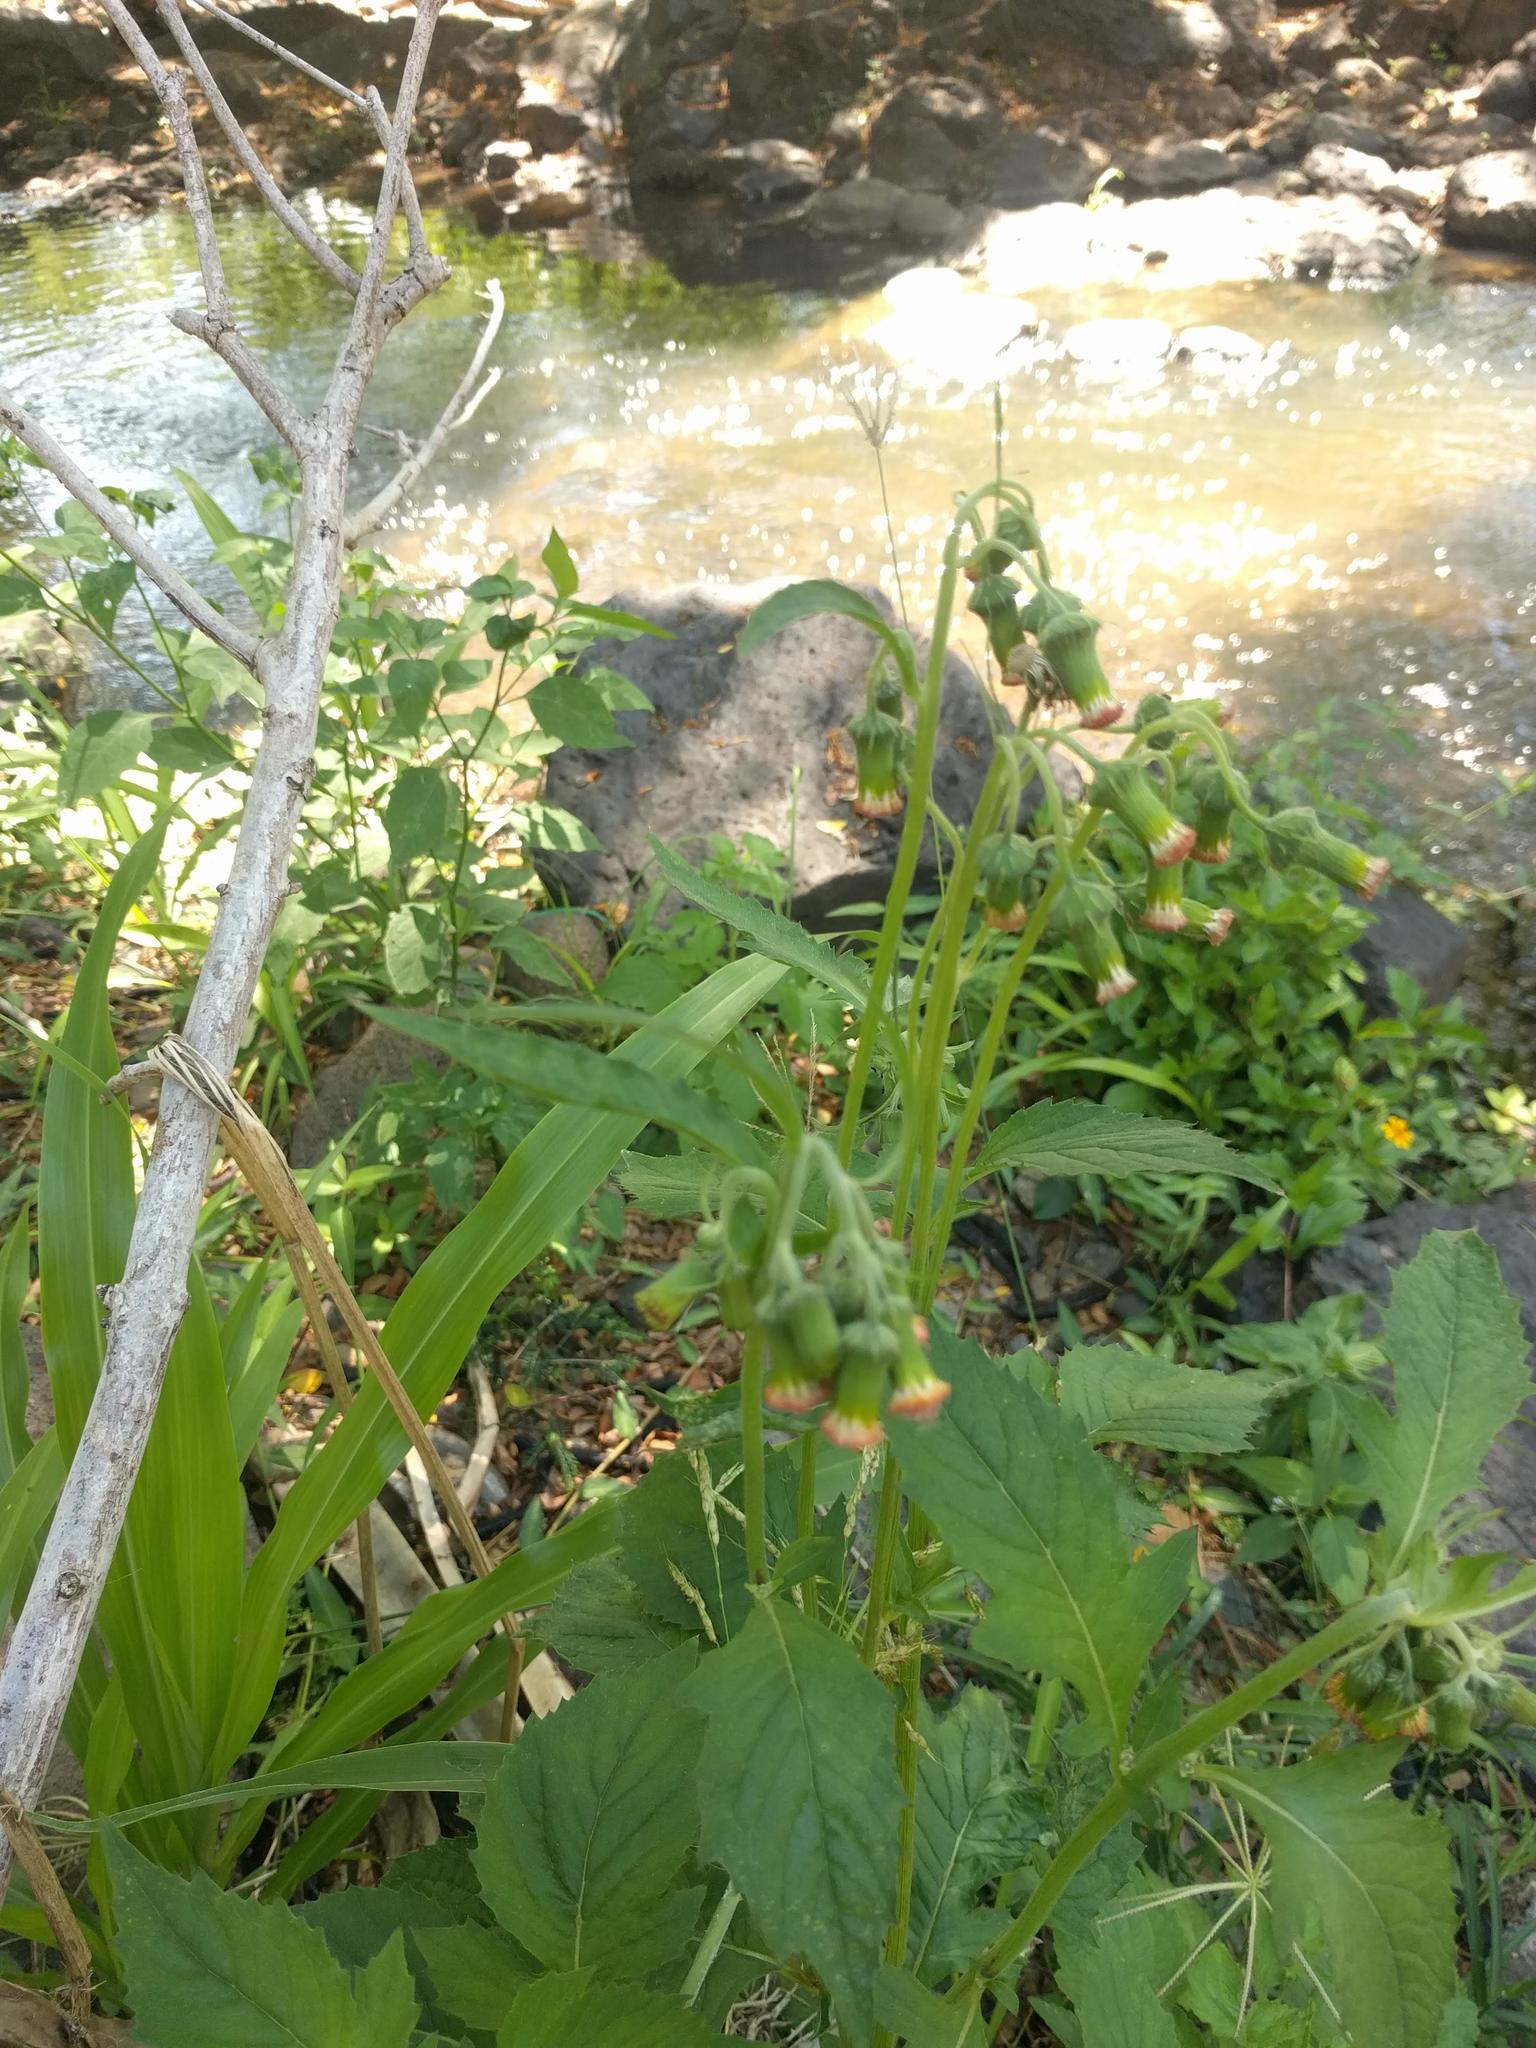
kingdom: Plantae
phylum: Tracheophyta
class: Magnoliopsida
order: Asterales
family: Asteraceae
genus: Crassocephalum
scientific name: Crassocephalum crepidioides
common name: Redflower ragleaf
